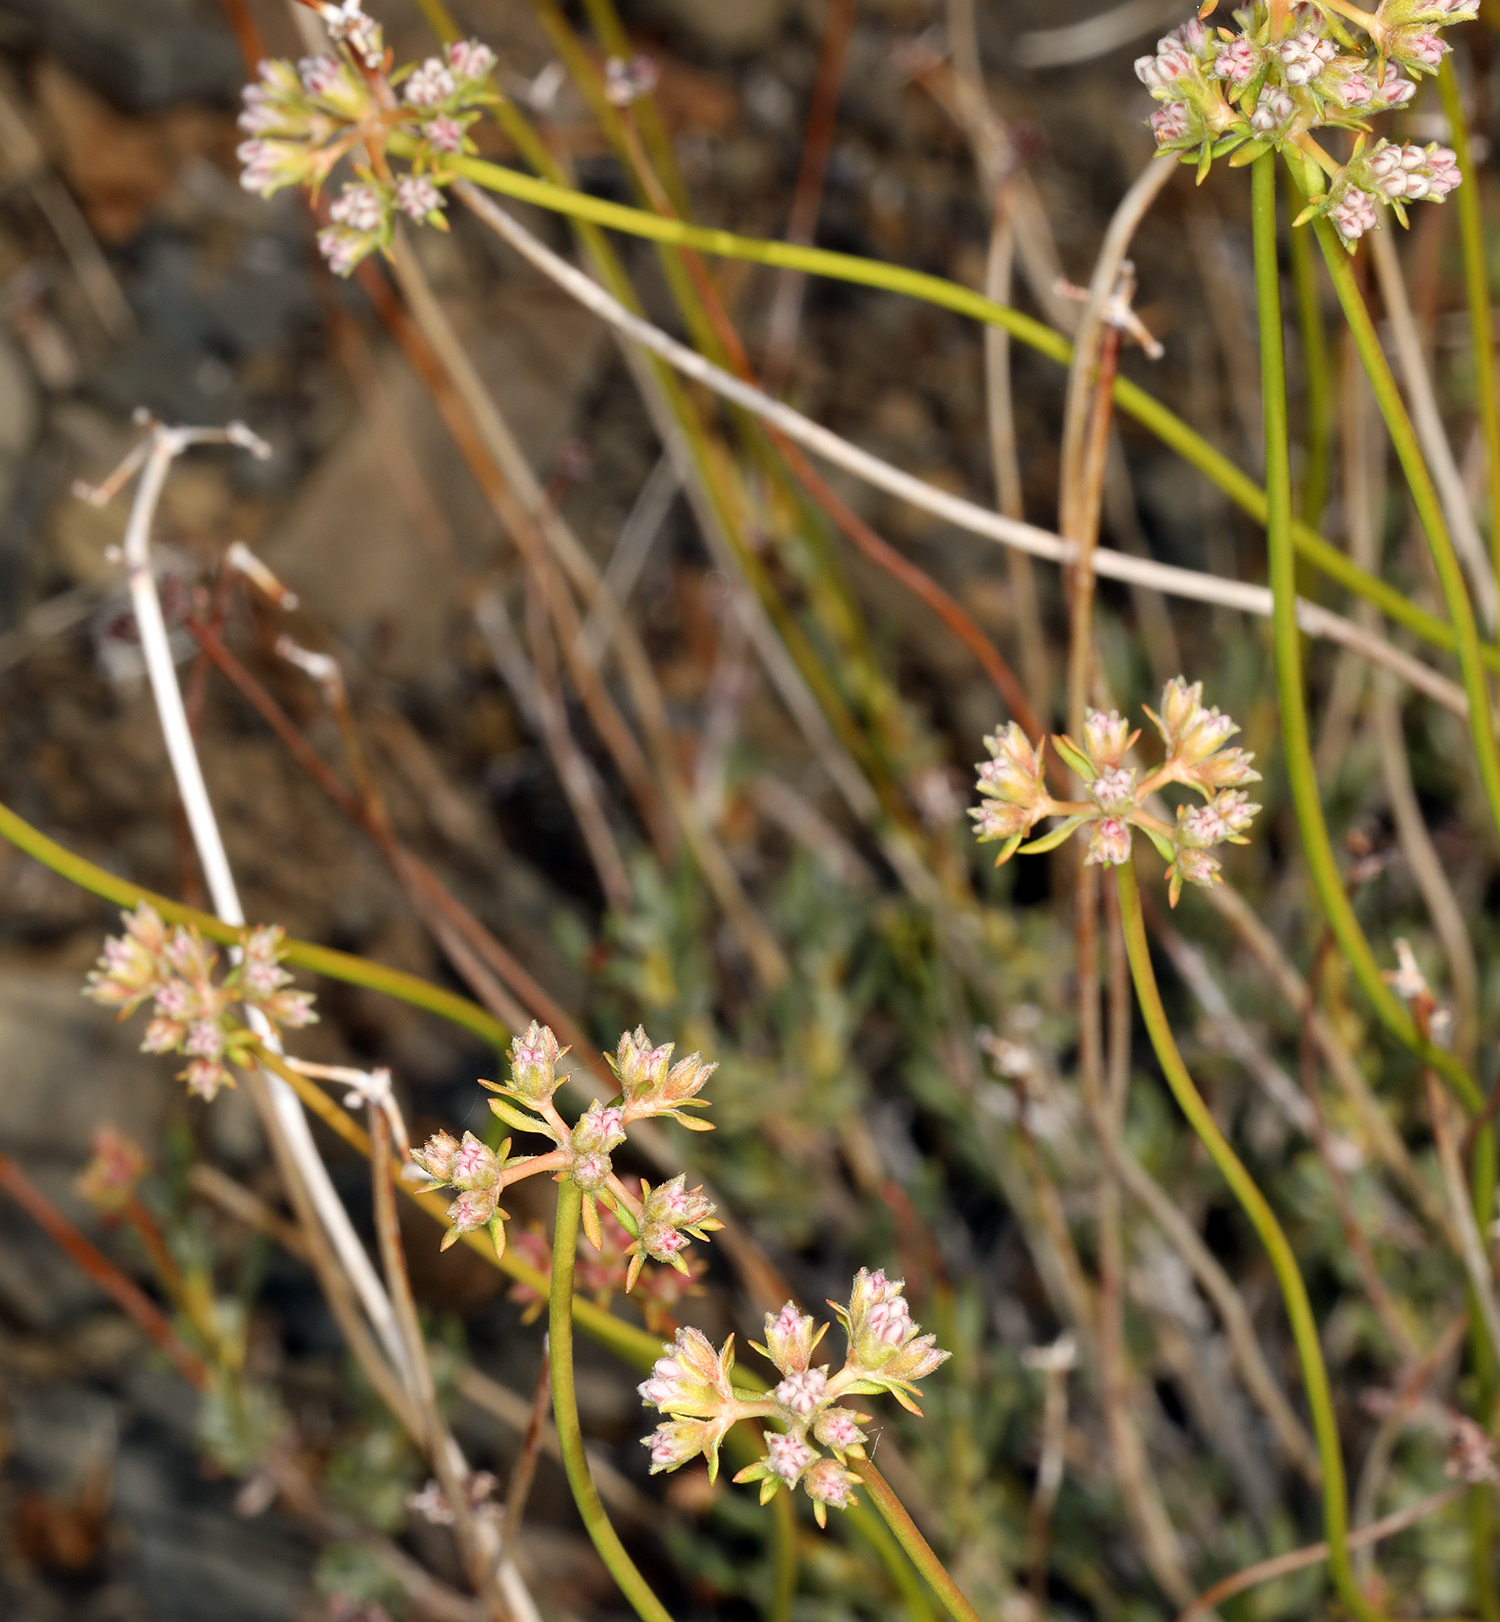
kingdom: Plantae
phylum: Tracheophyta
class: Magnoliopsida
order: Caryophyllales
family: Polygonaceae
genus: Eriogonum
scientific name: Eriogonum fasciculatum
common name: California wild buckwheat
